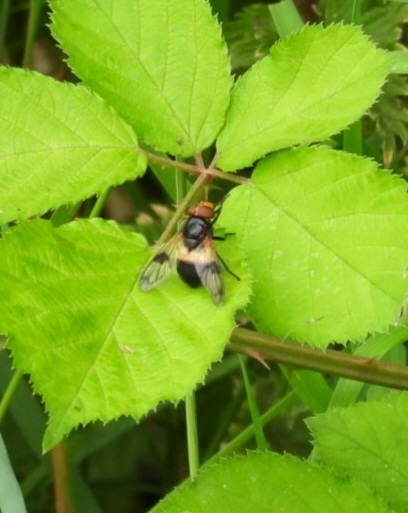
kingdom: Animalia
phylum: Arthropoda
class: Insecta
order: Diptera
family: Syrphidae
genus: Volucella
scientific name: Volucella pellucens
